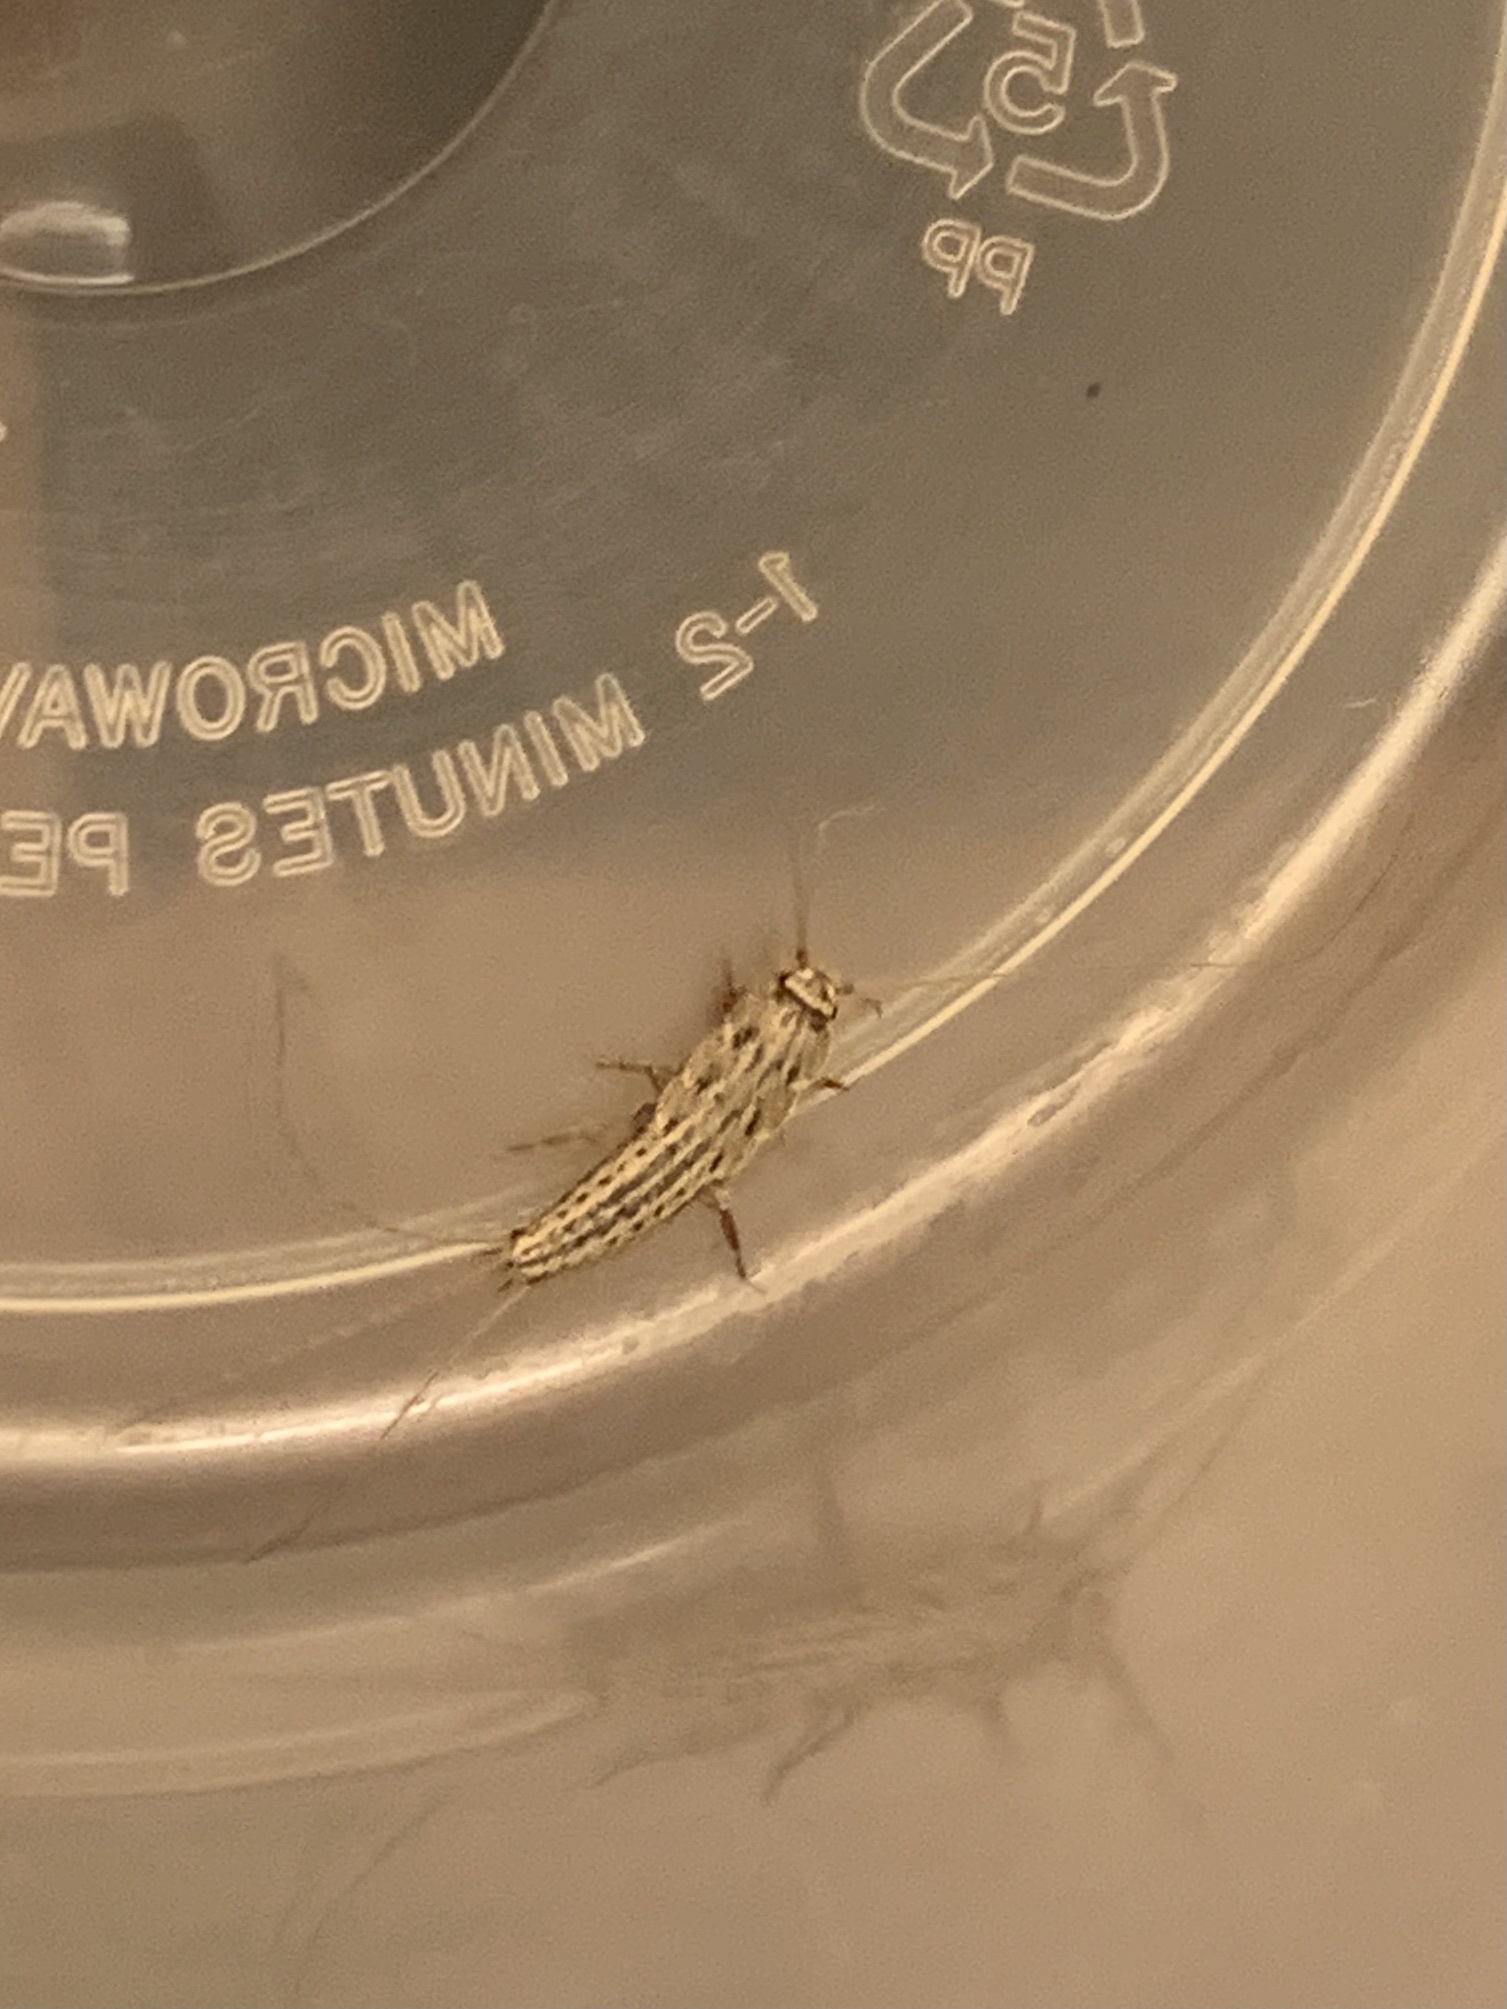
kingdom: Animalia
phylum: Arthropoda
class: Insecta
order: Zygentoma
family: Lepismatidae
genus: Ctenolepisma
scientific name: Ctenolepisma lineata
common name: Four-lined silverfish
